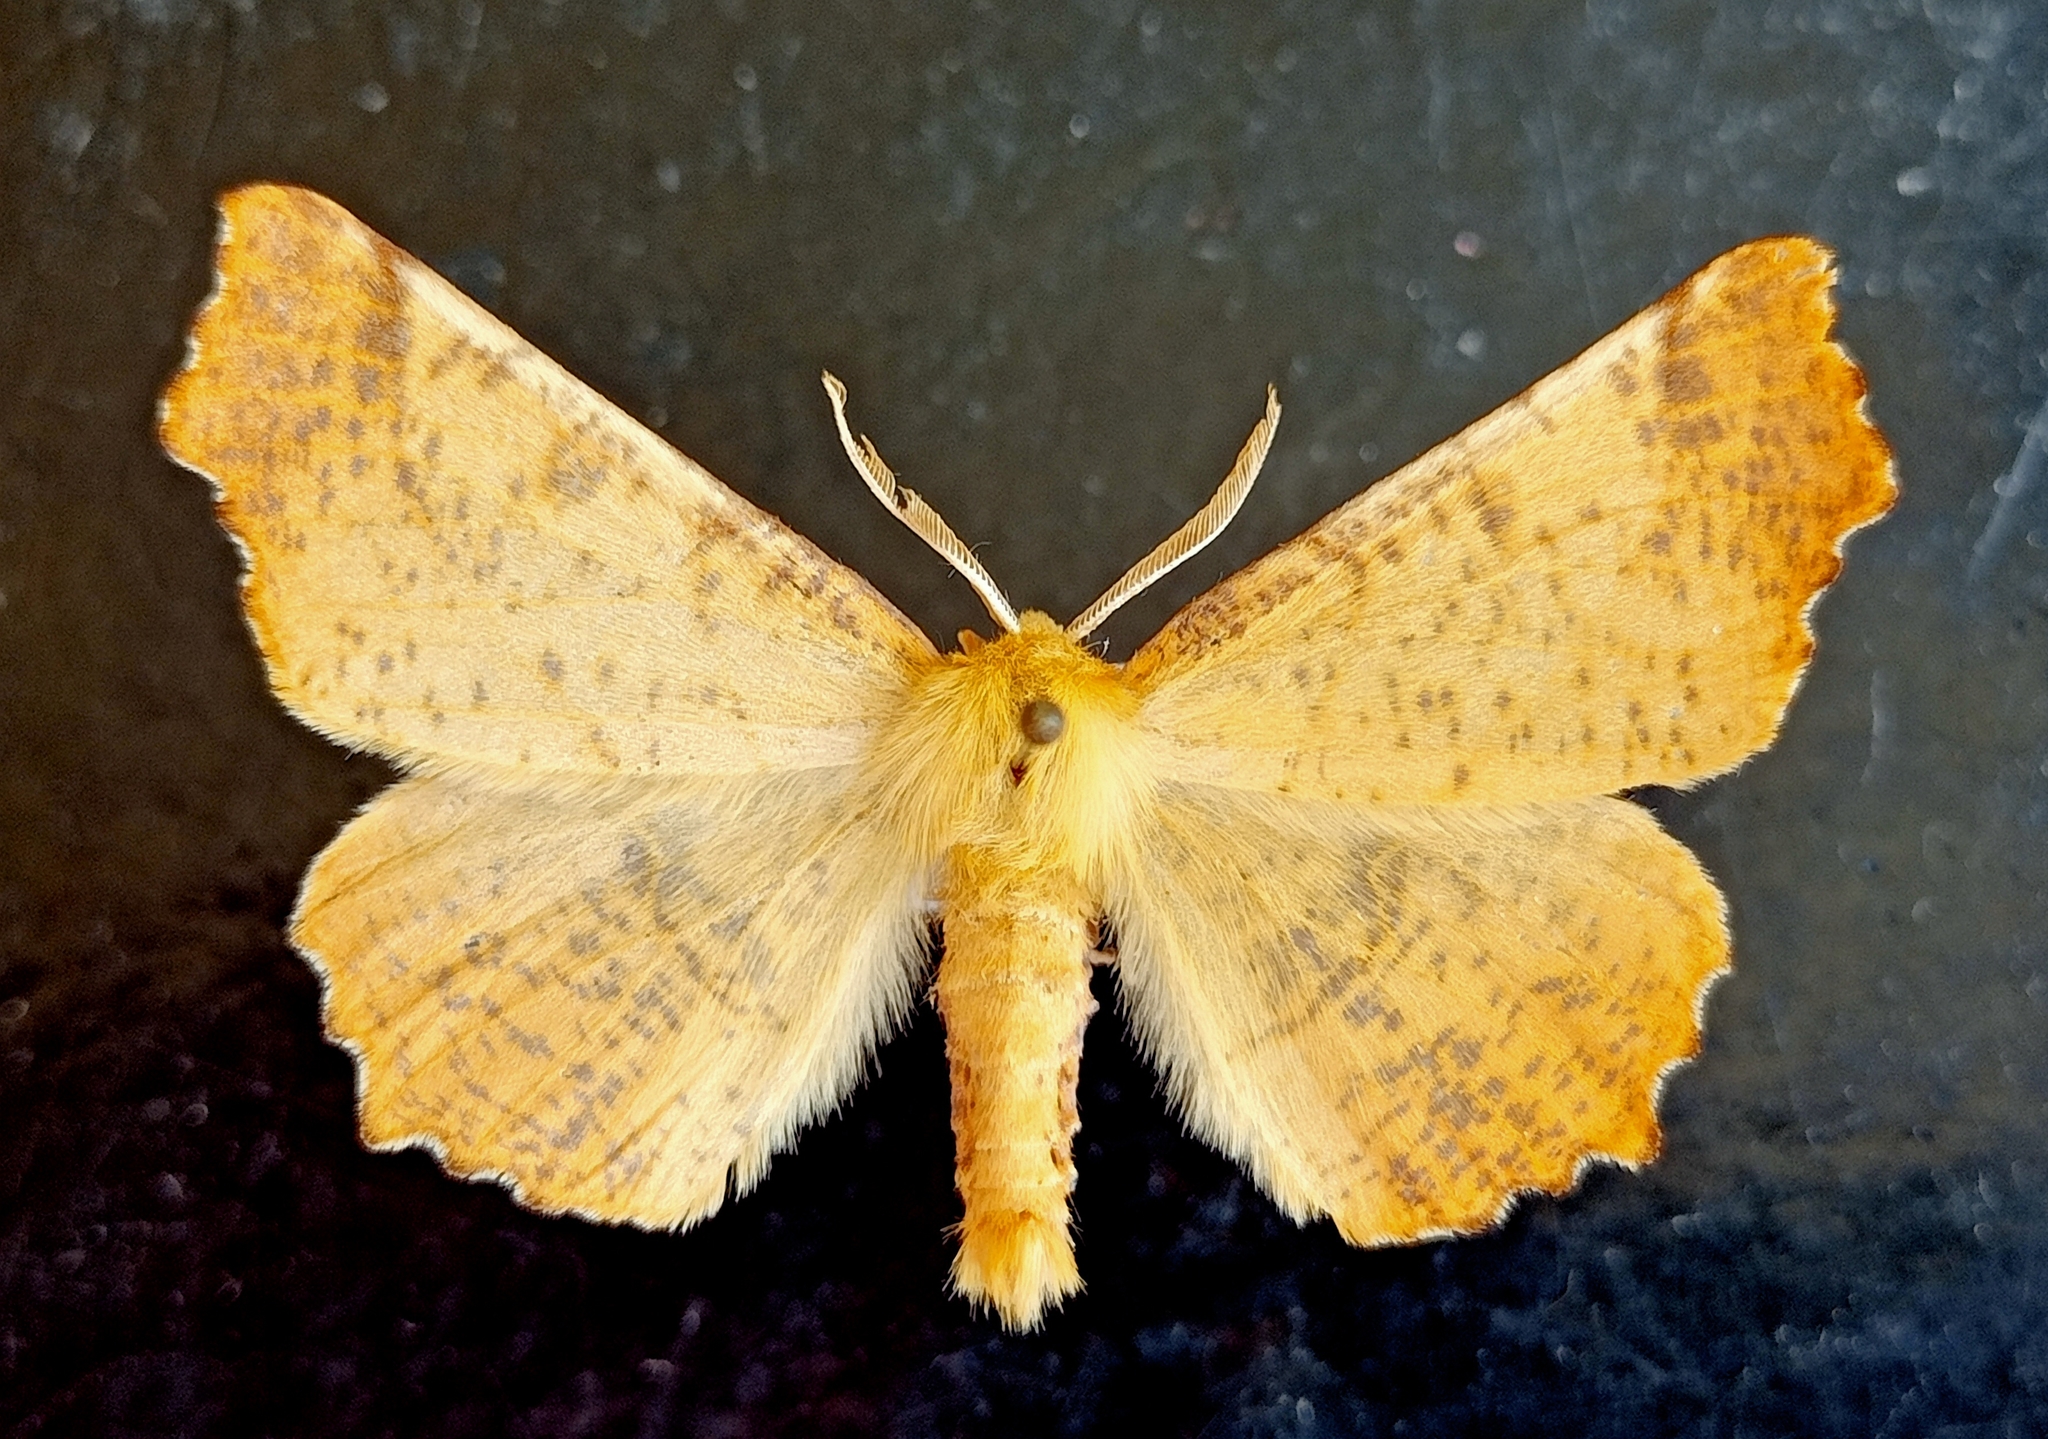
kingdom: Animalia
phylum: Arthropoda
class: Insecta
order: Lepidoptera
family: Geometridae
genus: Ennomos
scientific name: Ennomos autumnaria
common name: Large thorn
